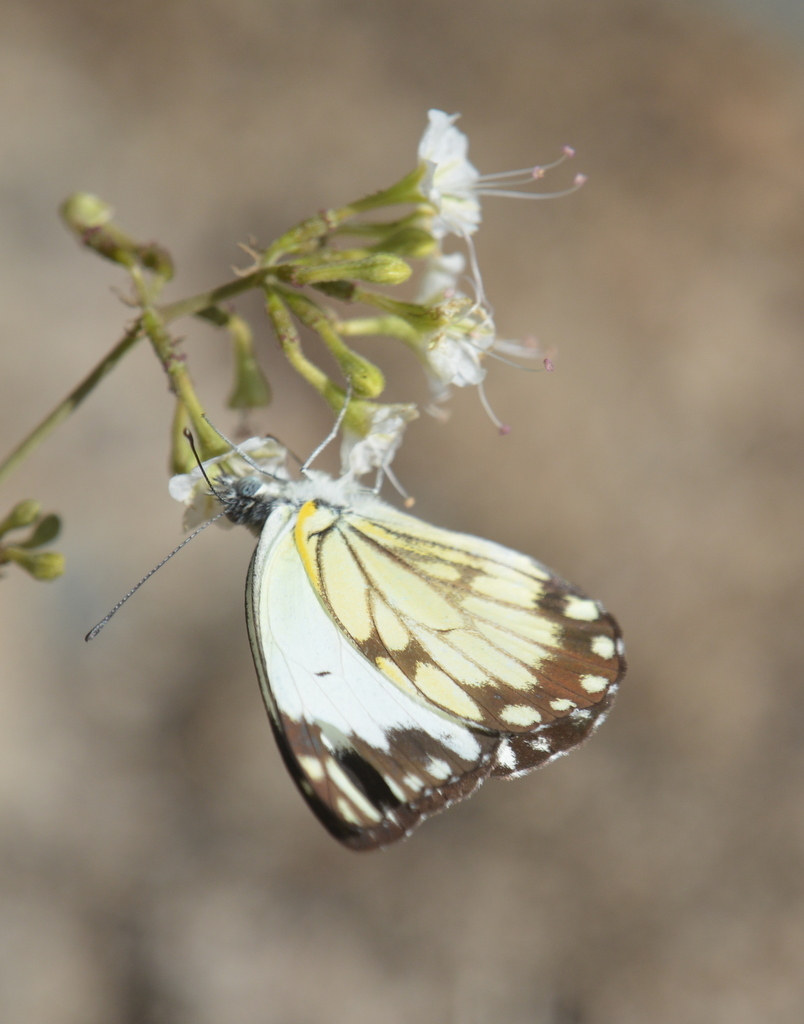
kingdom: Animalia
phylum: Arthropoda
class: Insecta
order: Lepidoptera
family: Pieridae
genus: Belenois
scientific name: Belenois creona
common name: African caper white
